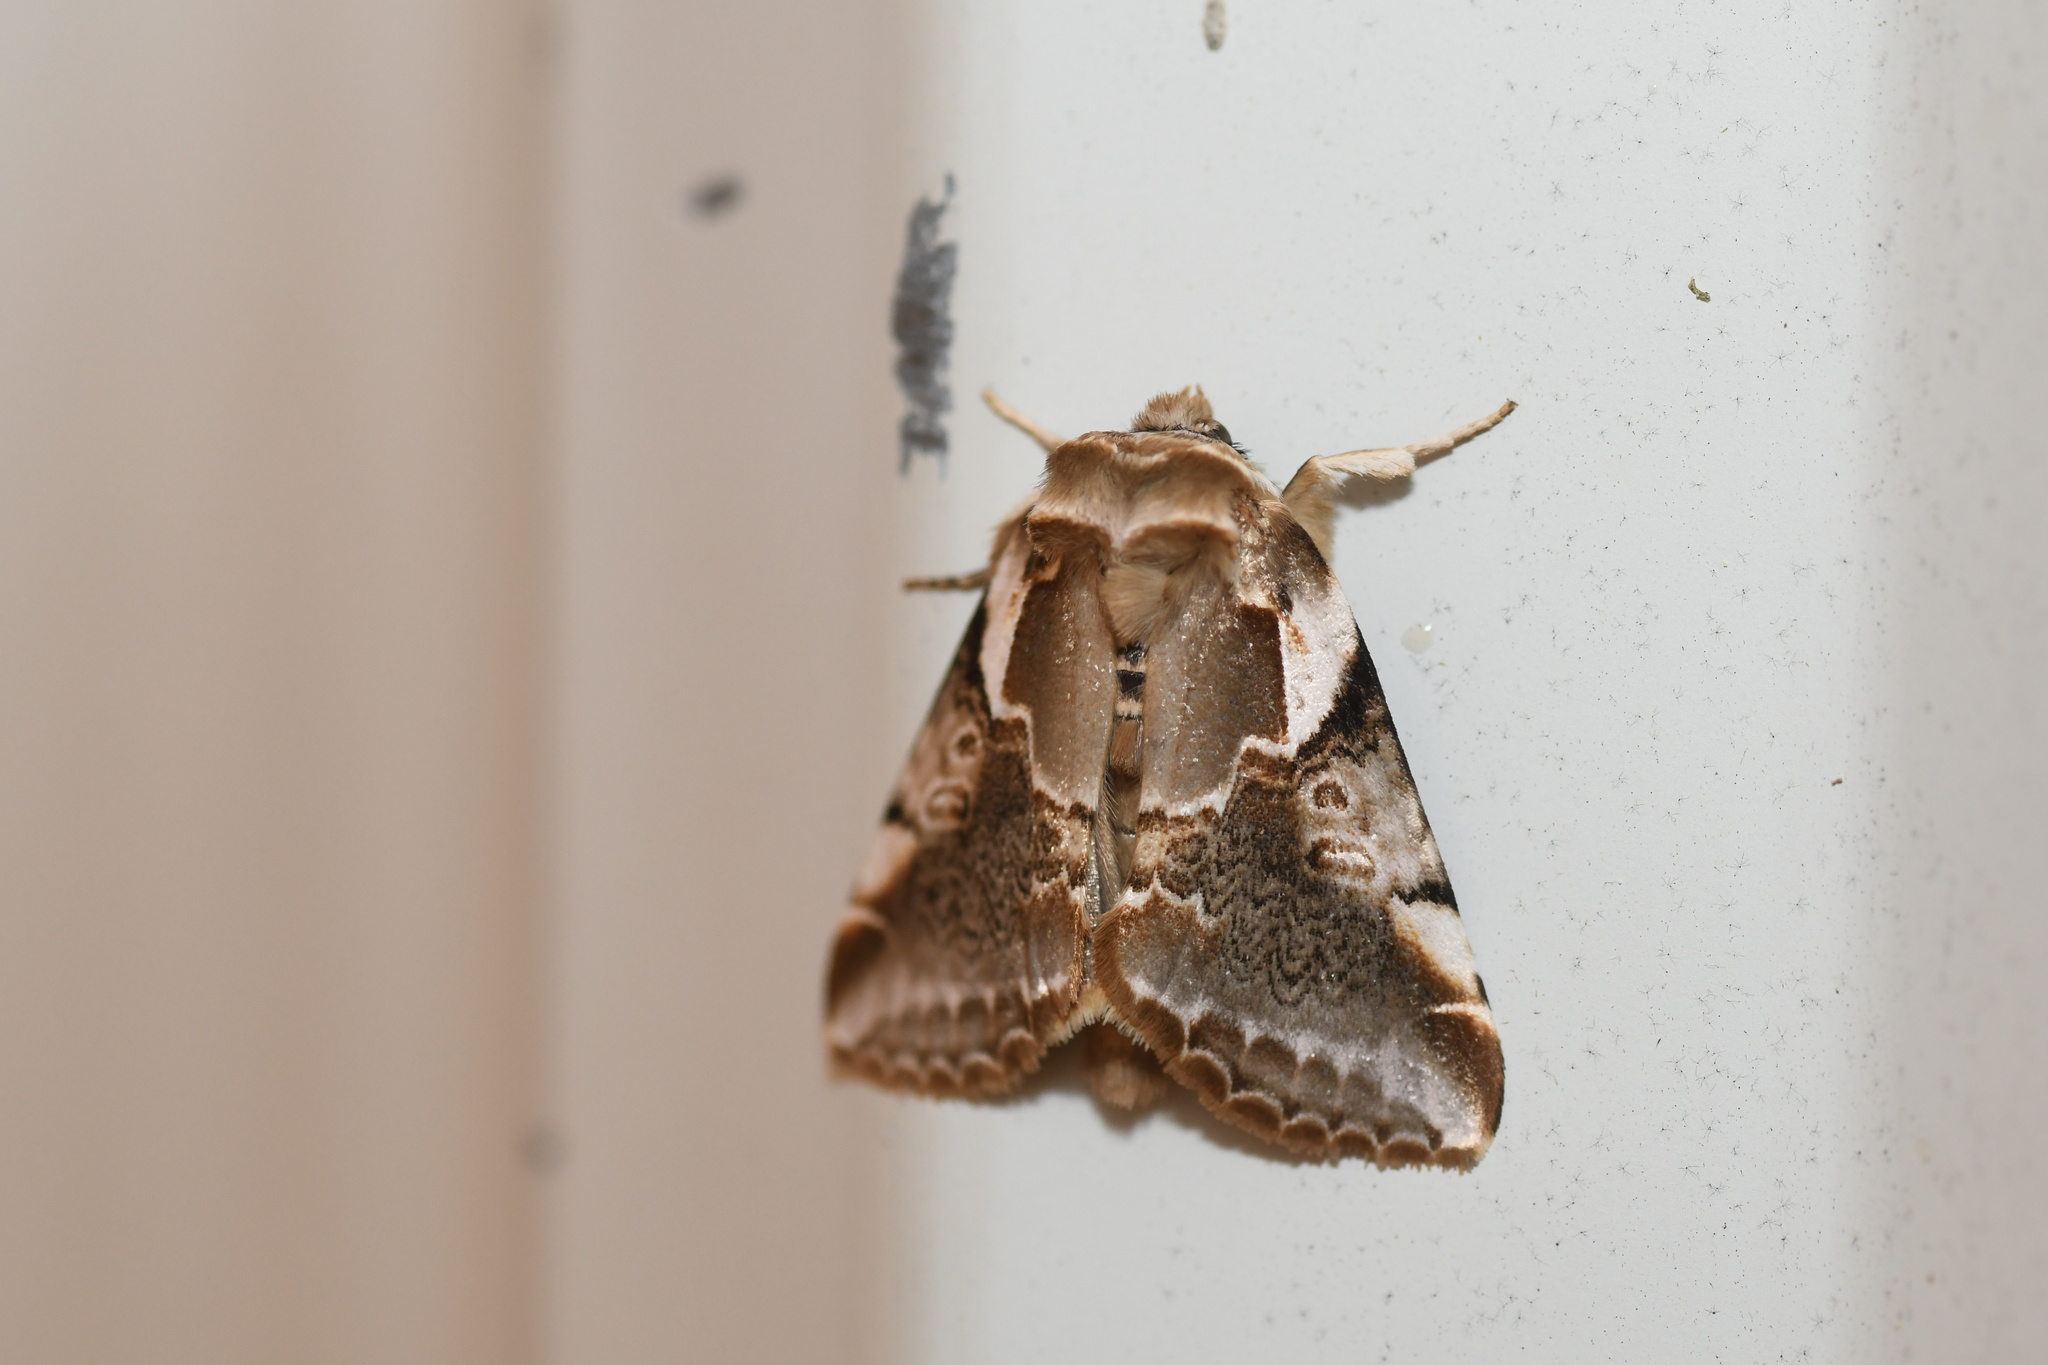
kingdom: Animalia
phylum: Arthropoda
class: Insecta
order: Lepidoptera
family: Drepanidae
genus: Habrosyne
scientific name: Habrosyne gloriosa
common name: Glorious habrosyne moth
